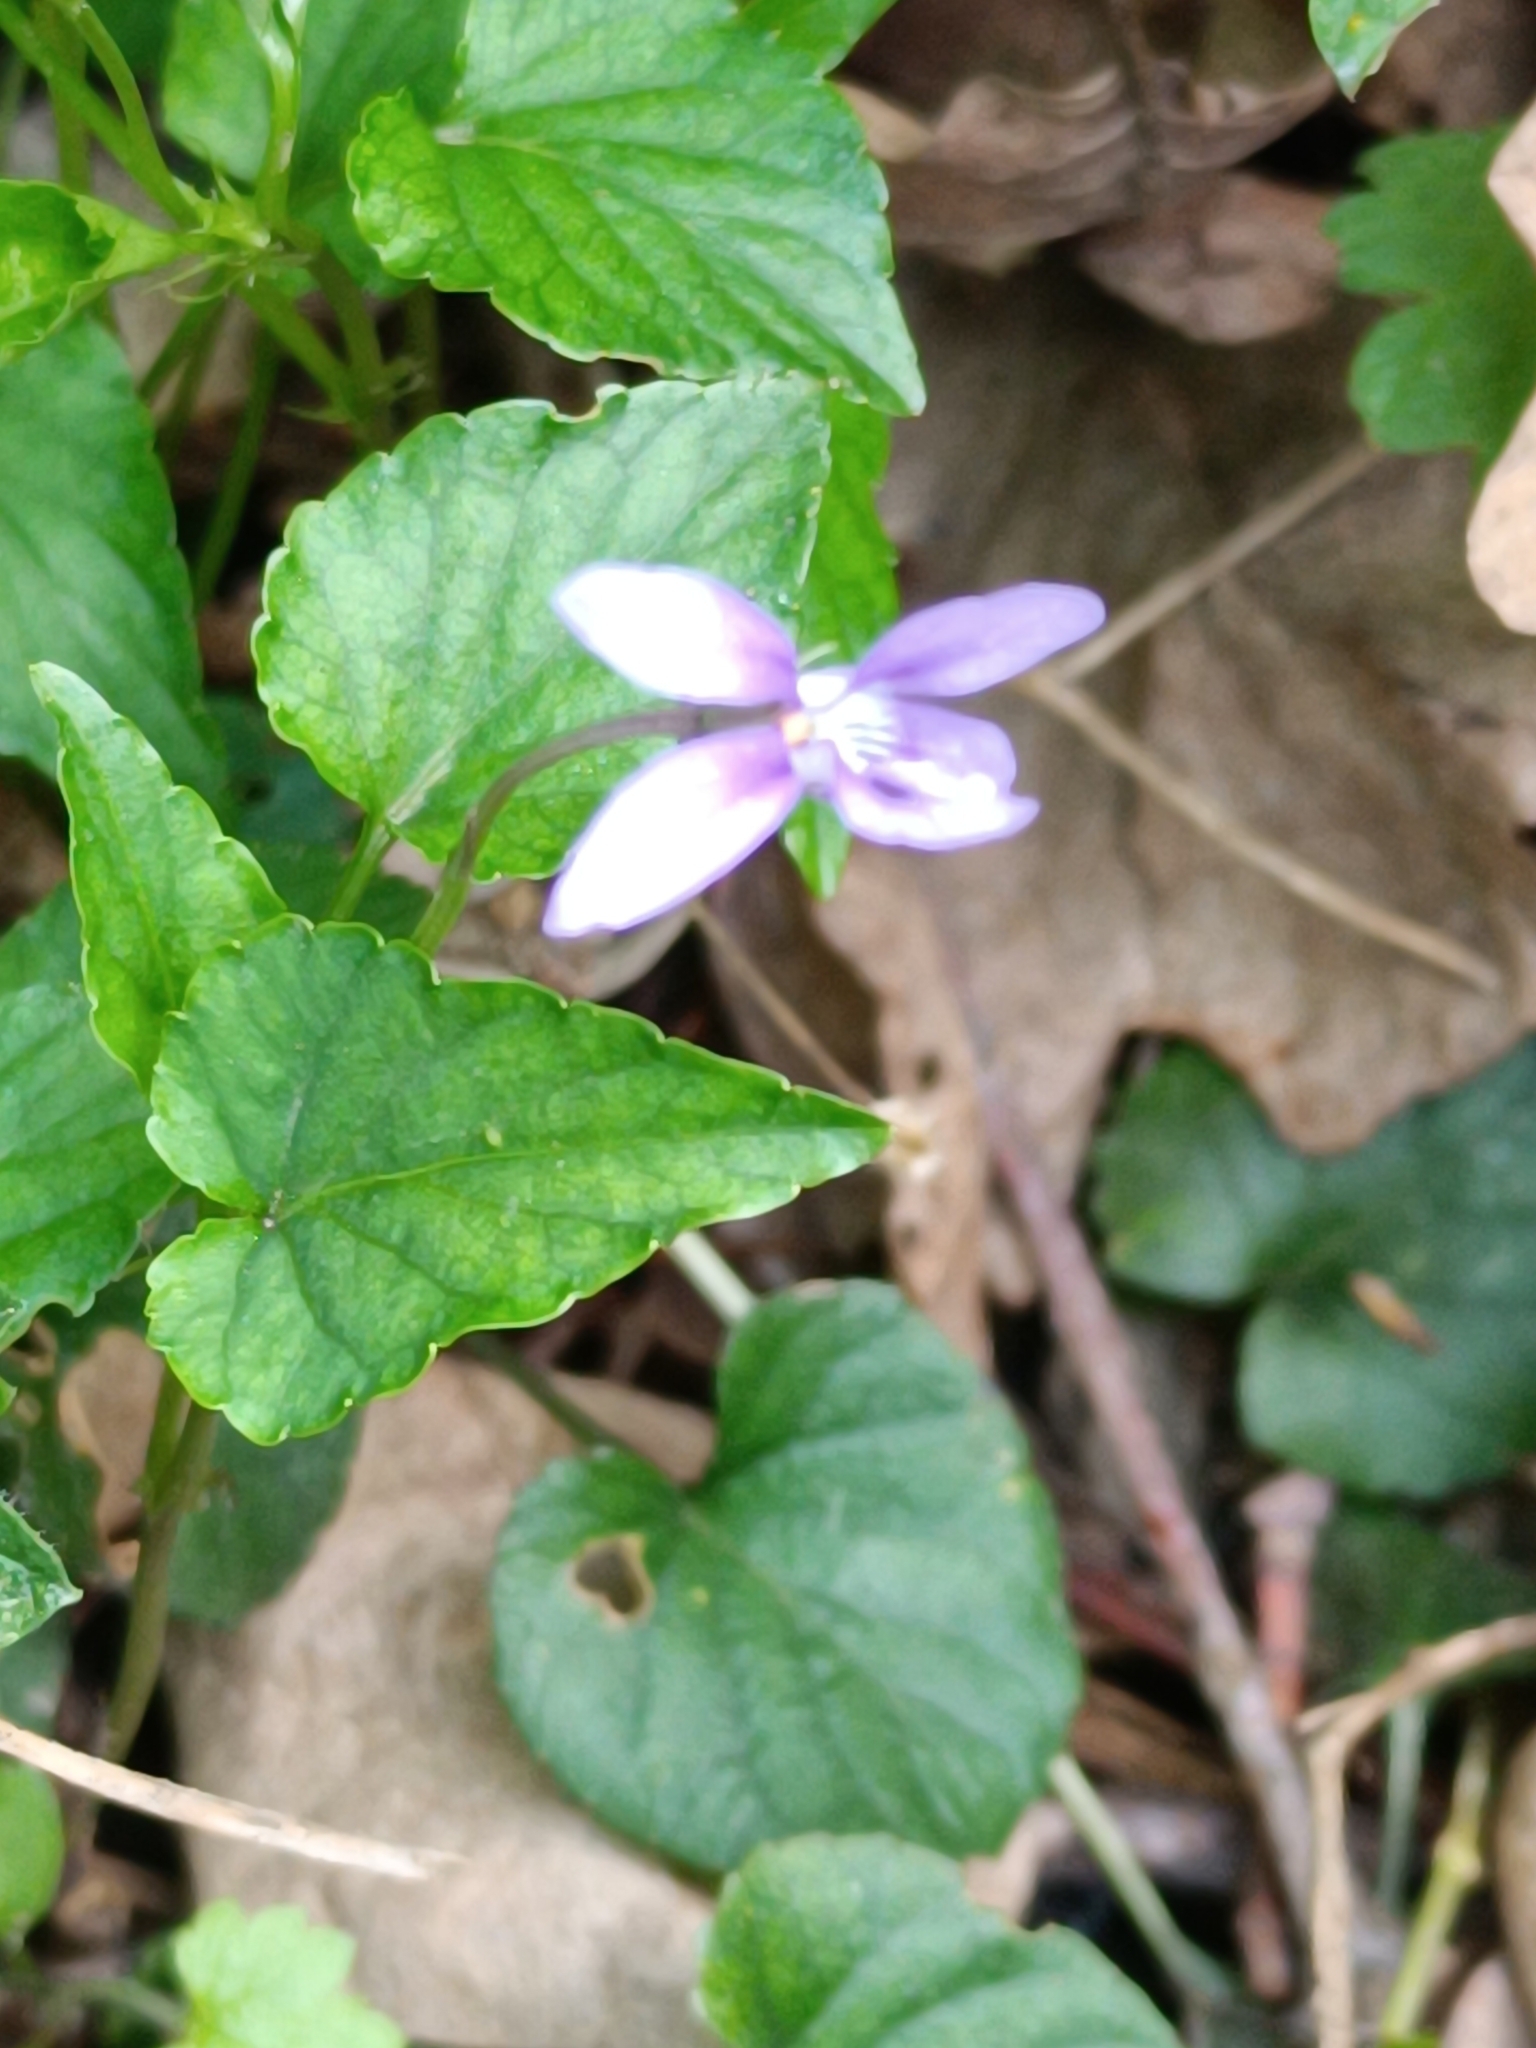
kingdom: Plantae
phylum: Tracheophyta
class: Magnoliopsida
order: Malpighiales
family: Violaceae
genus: Viola
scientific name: Viola reichenbachiana
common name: Early dog-violet
